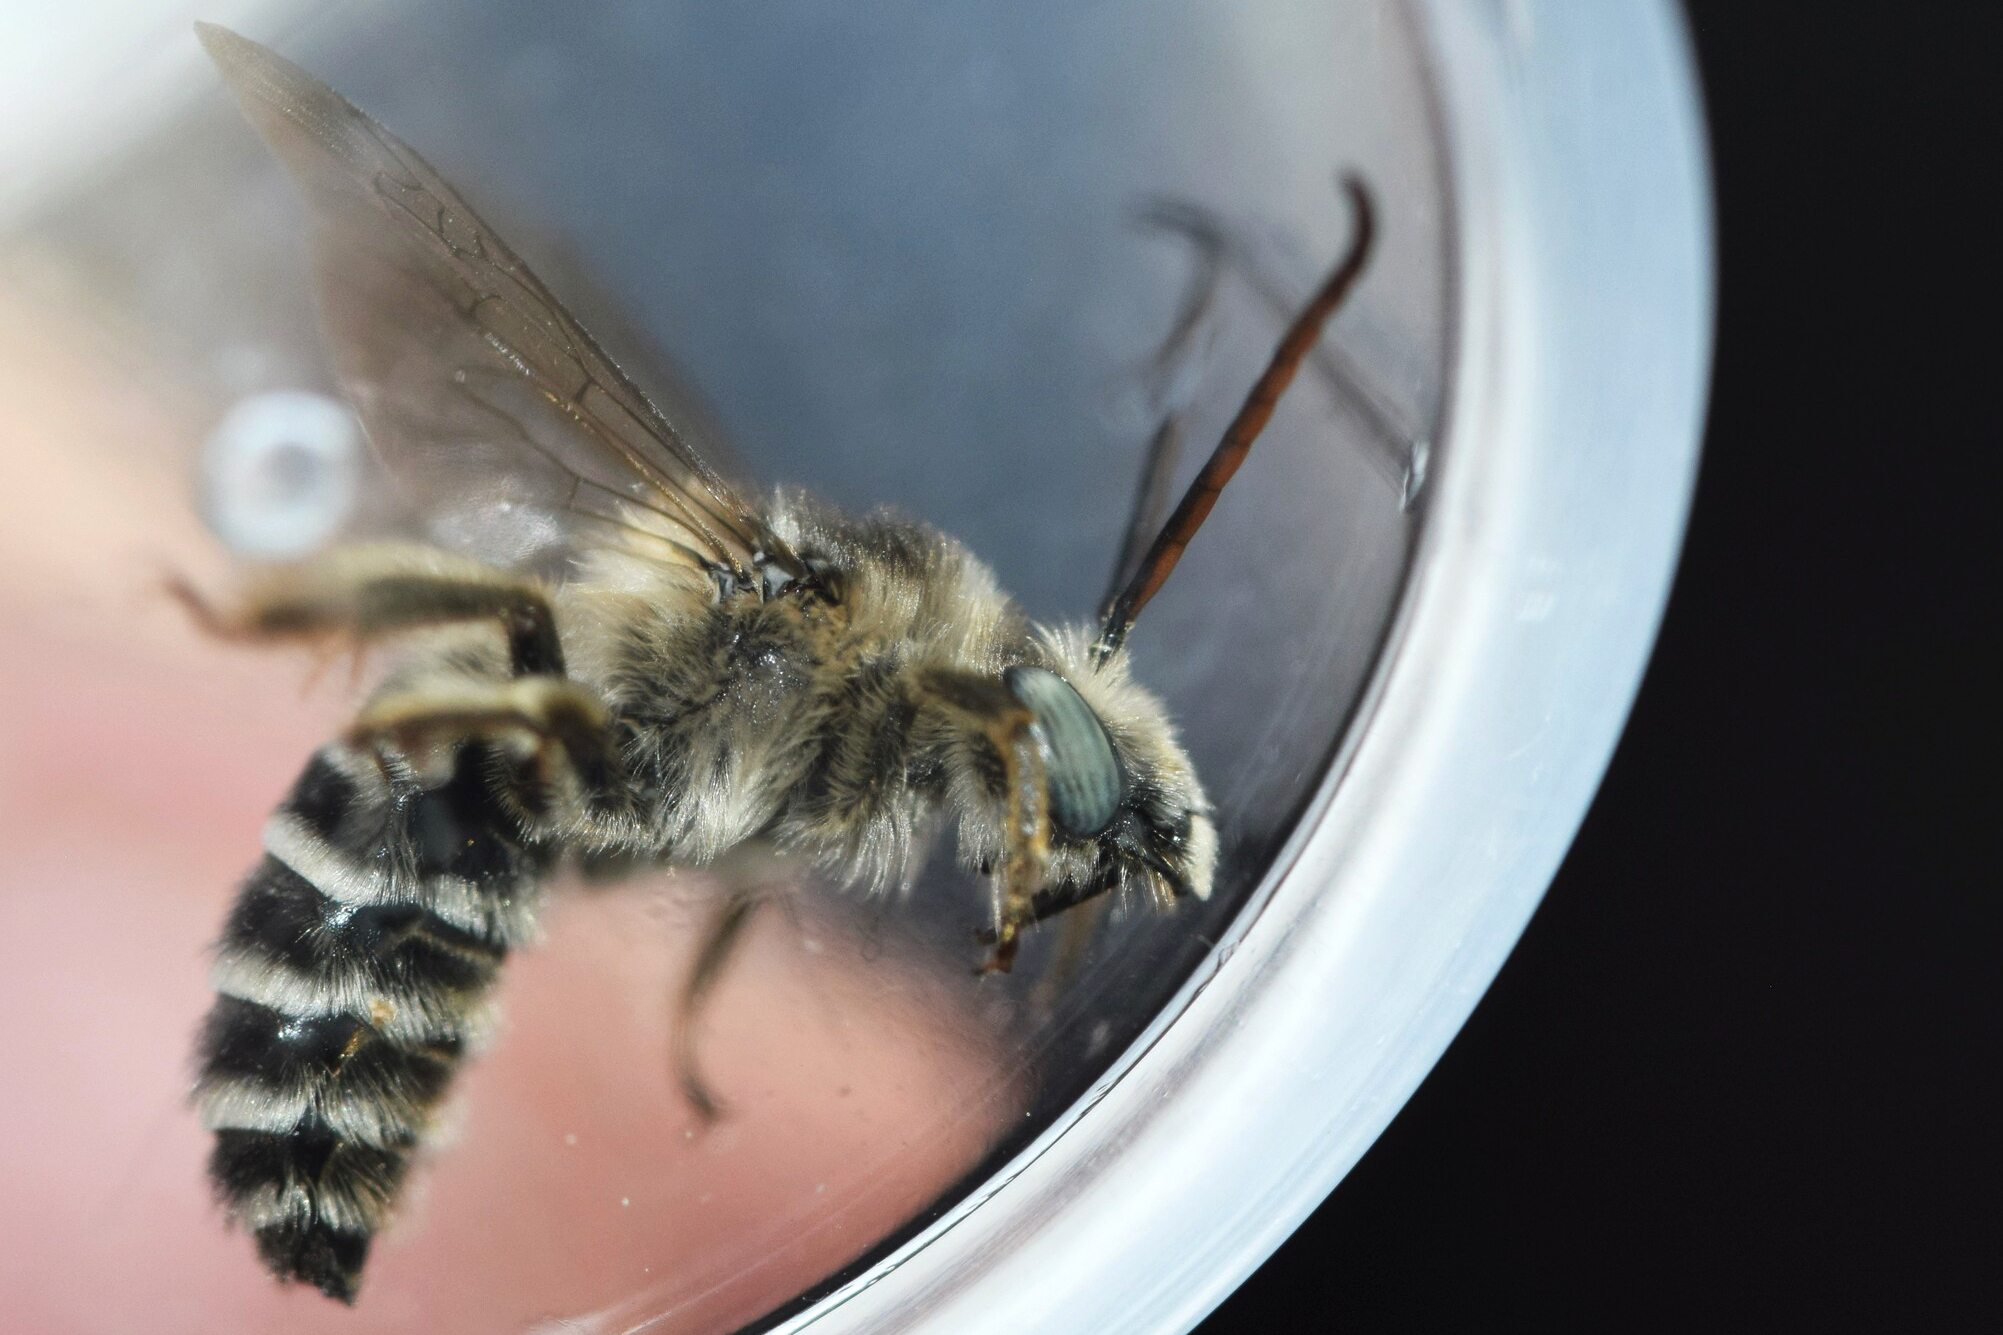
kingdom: Animalia
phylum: Arthropoda
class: Insecta
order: Hymenoptera
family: Apidae
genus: Melissodes
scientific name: Melissodes apicatus
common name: Pickerelweed long-horned bee
